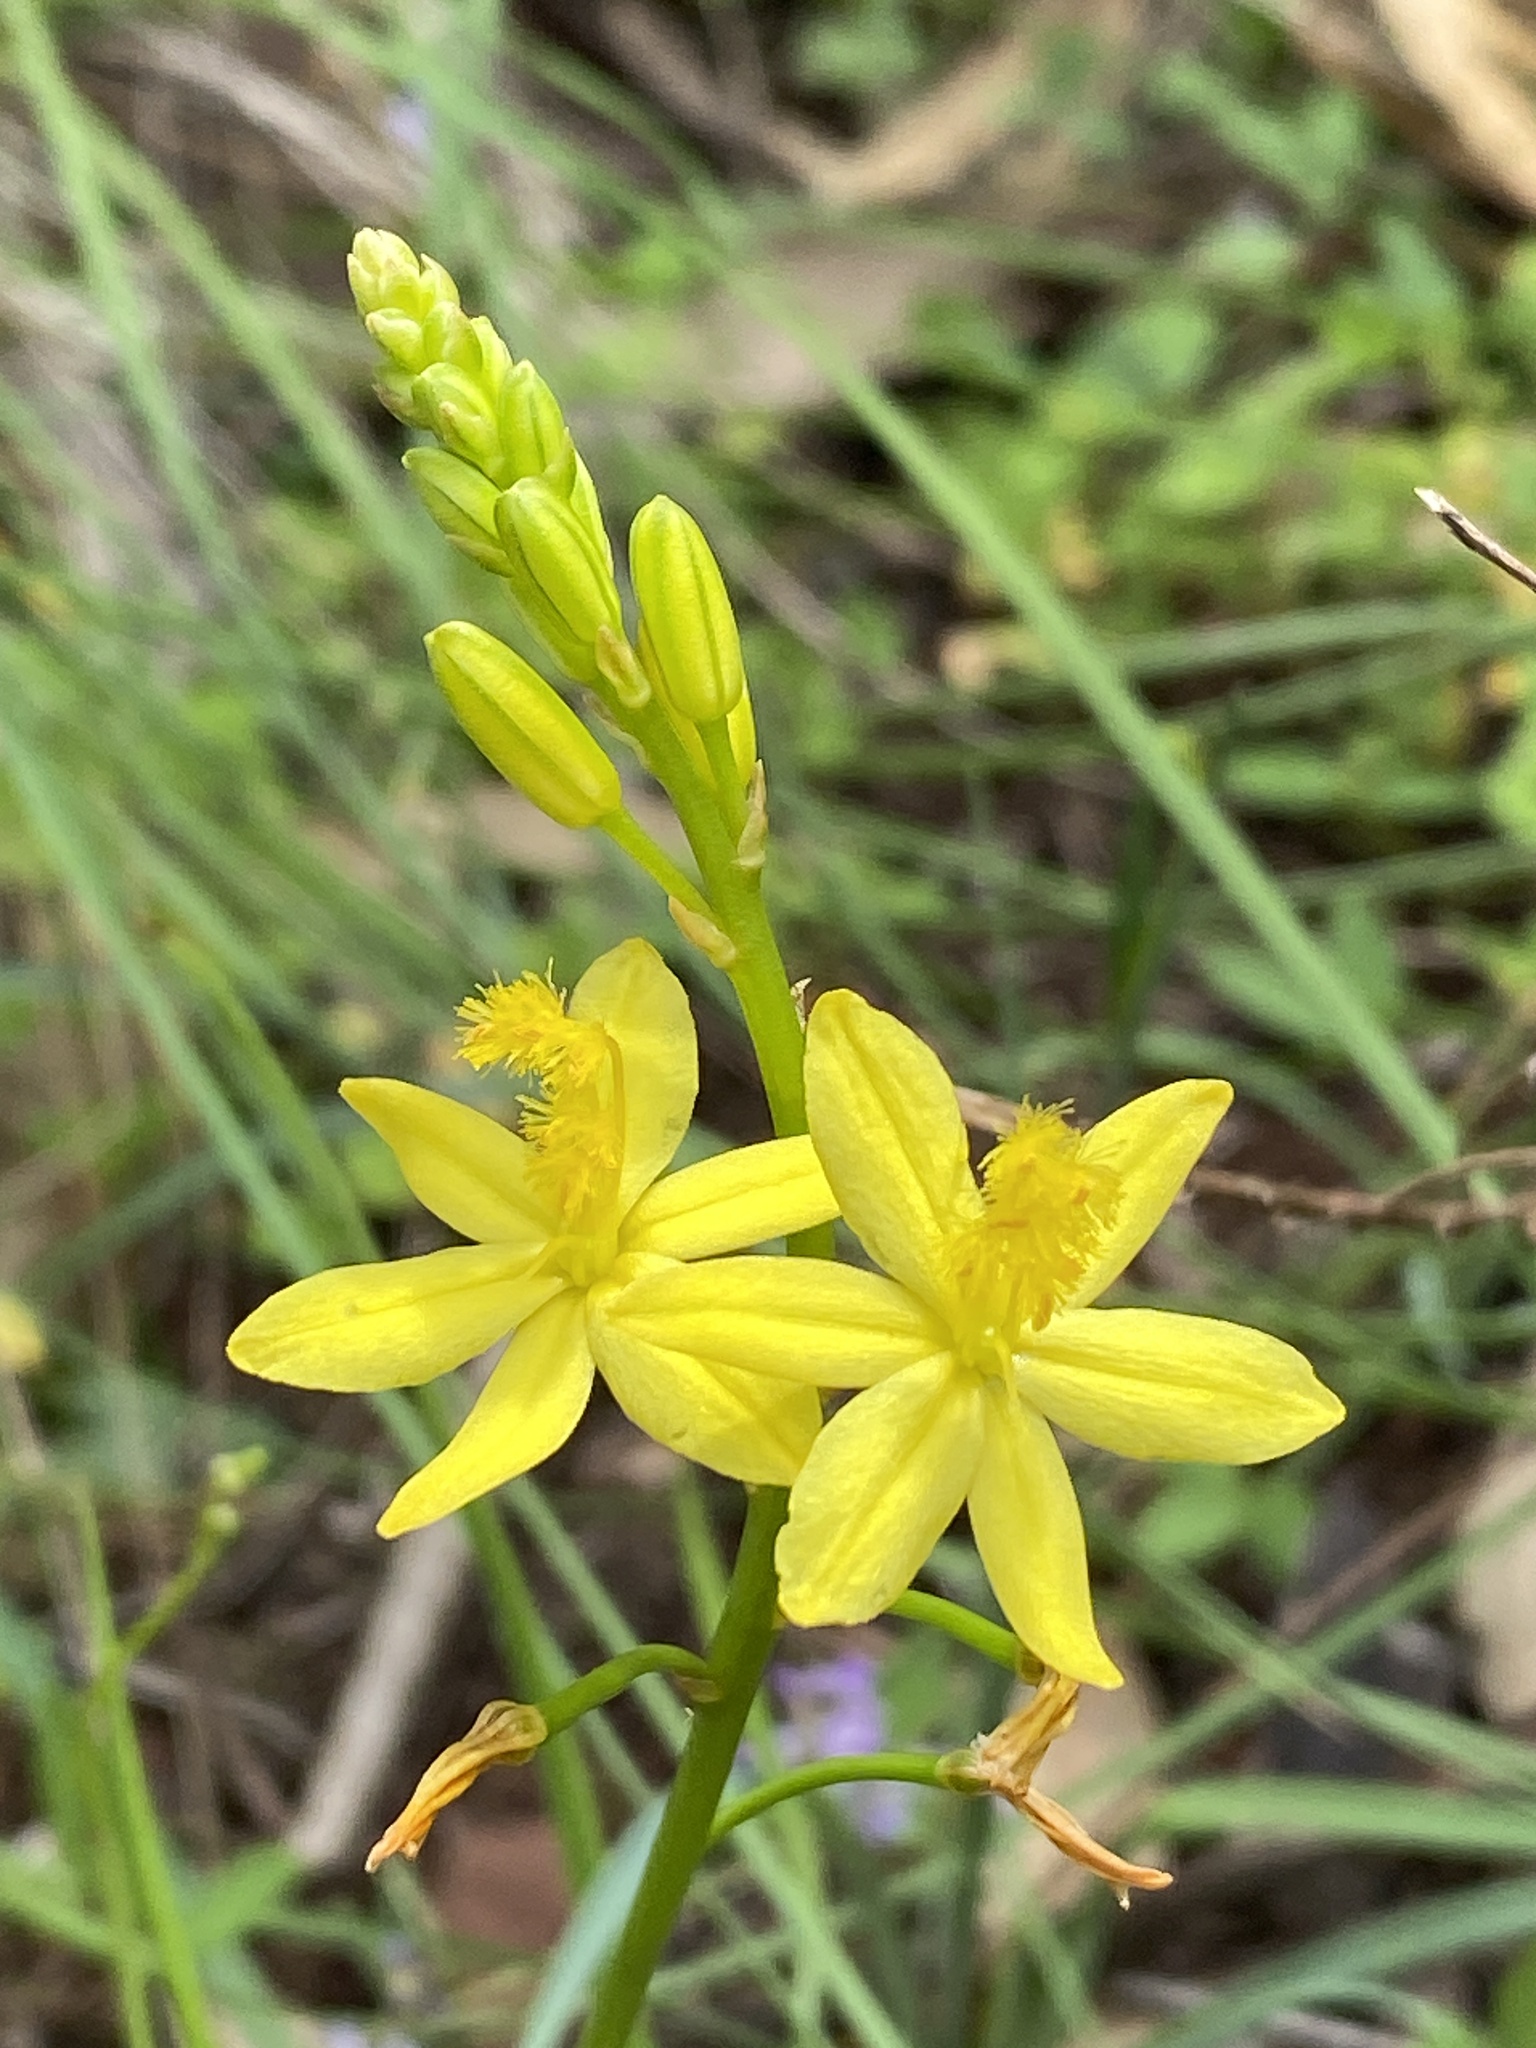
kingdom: Plantae
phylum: Tracheophyta
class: Liliopsida
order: Asparagales
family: Asphodelaceae
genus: Bulbine
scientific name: Bulbine bulbosa
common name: Golden-lily
